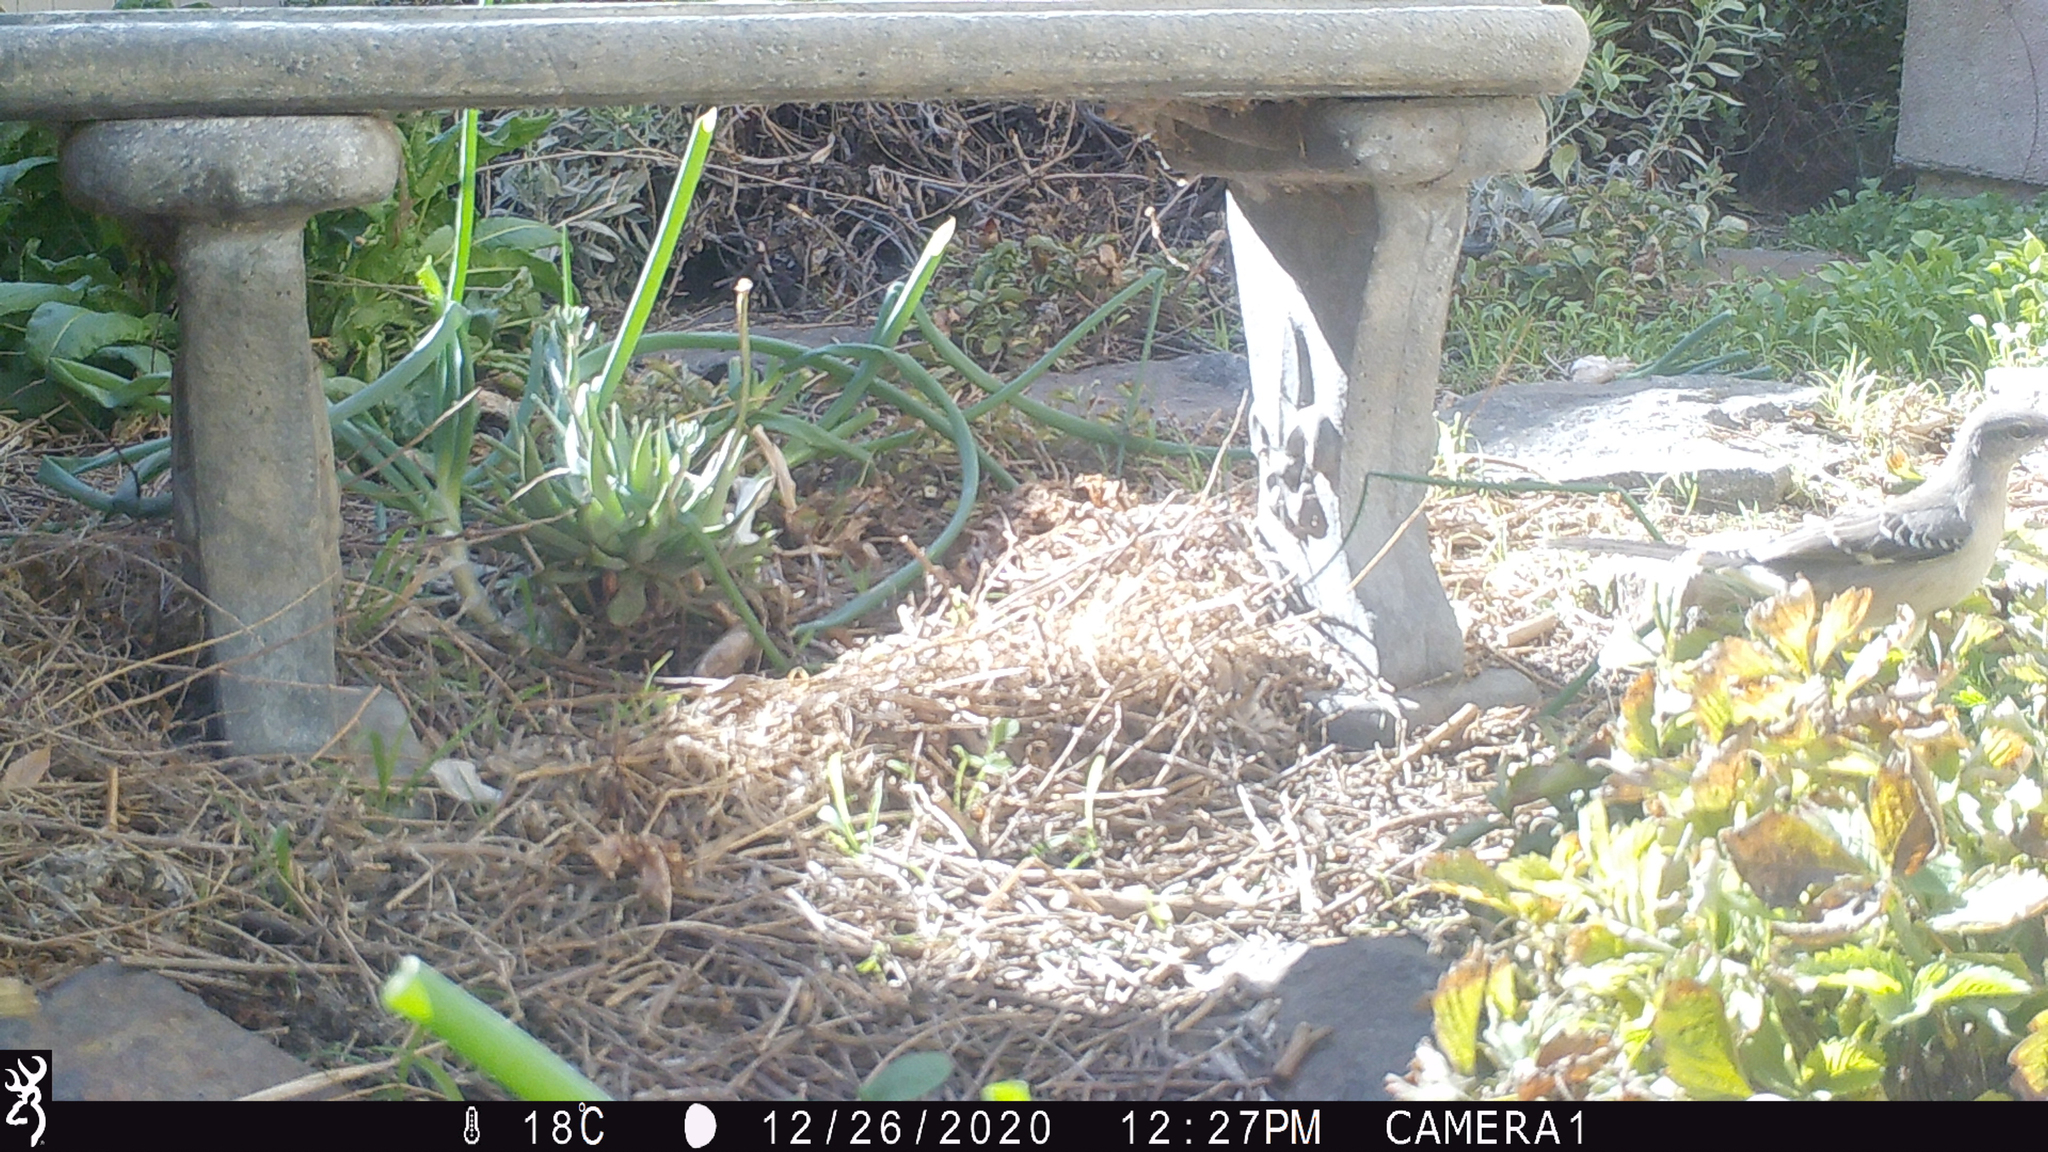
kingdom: Animalia
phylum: Chordata
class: Aves
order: Passeriformes
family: Mimidae
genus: Mimus
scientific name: Mimus polyglottos
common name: Northern mockingbird
